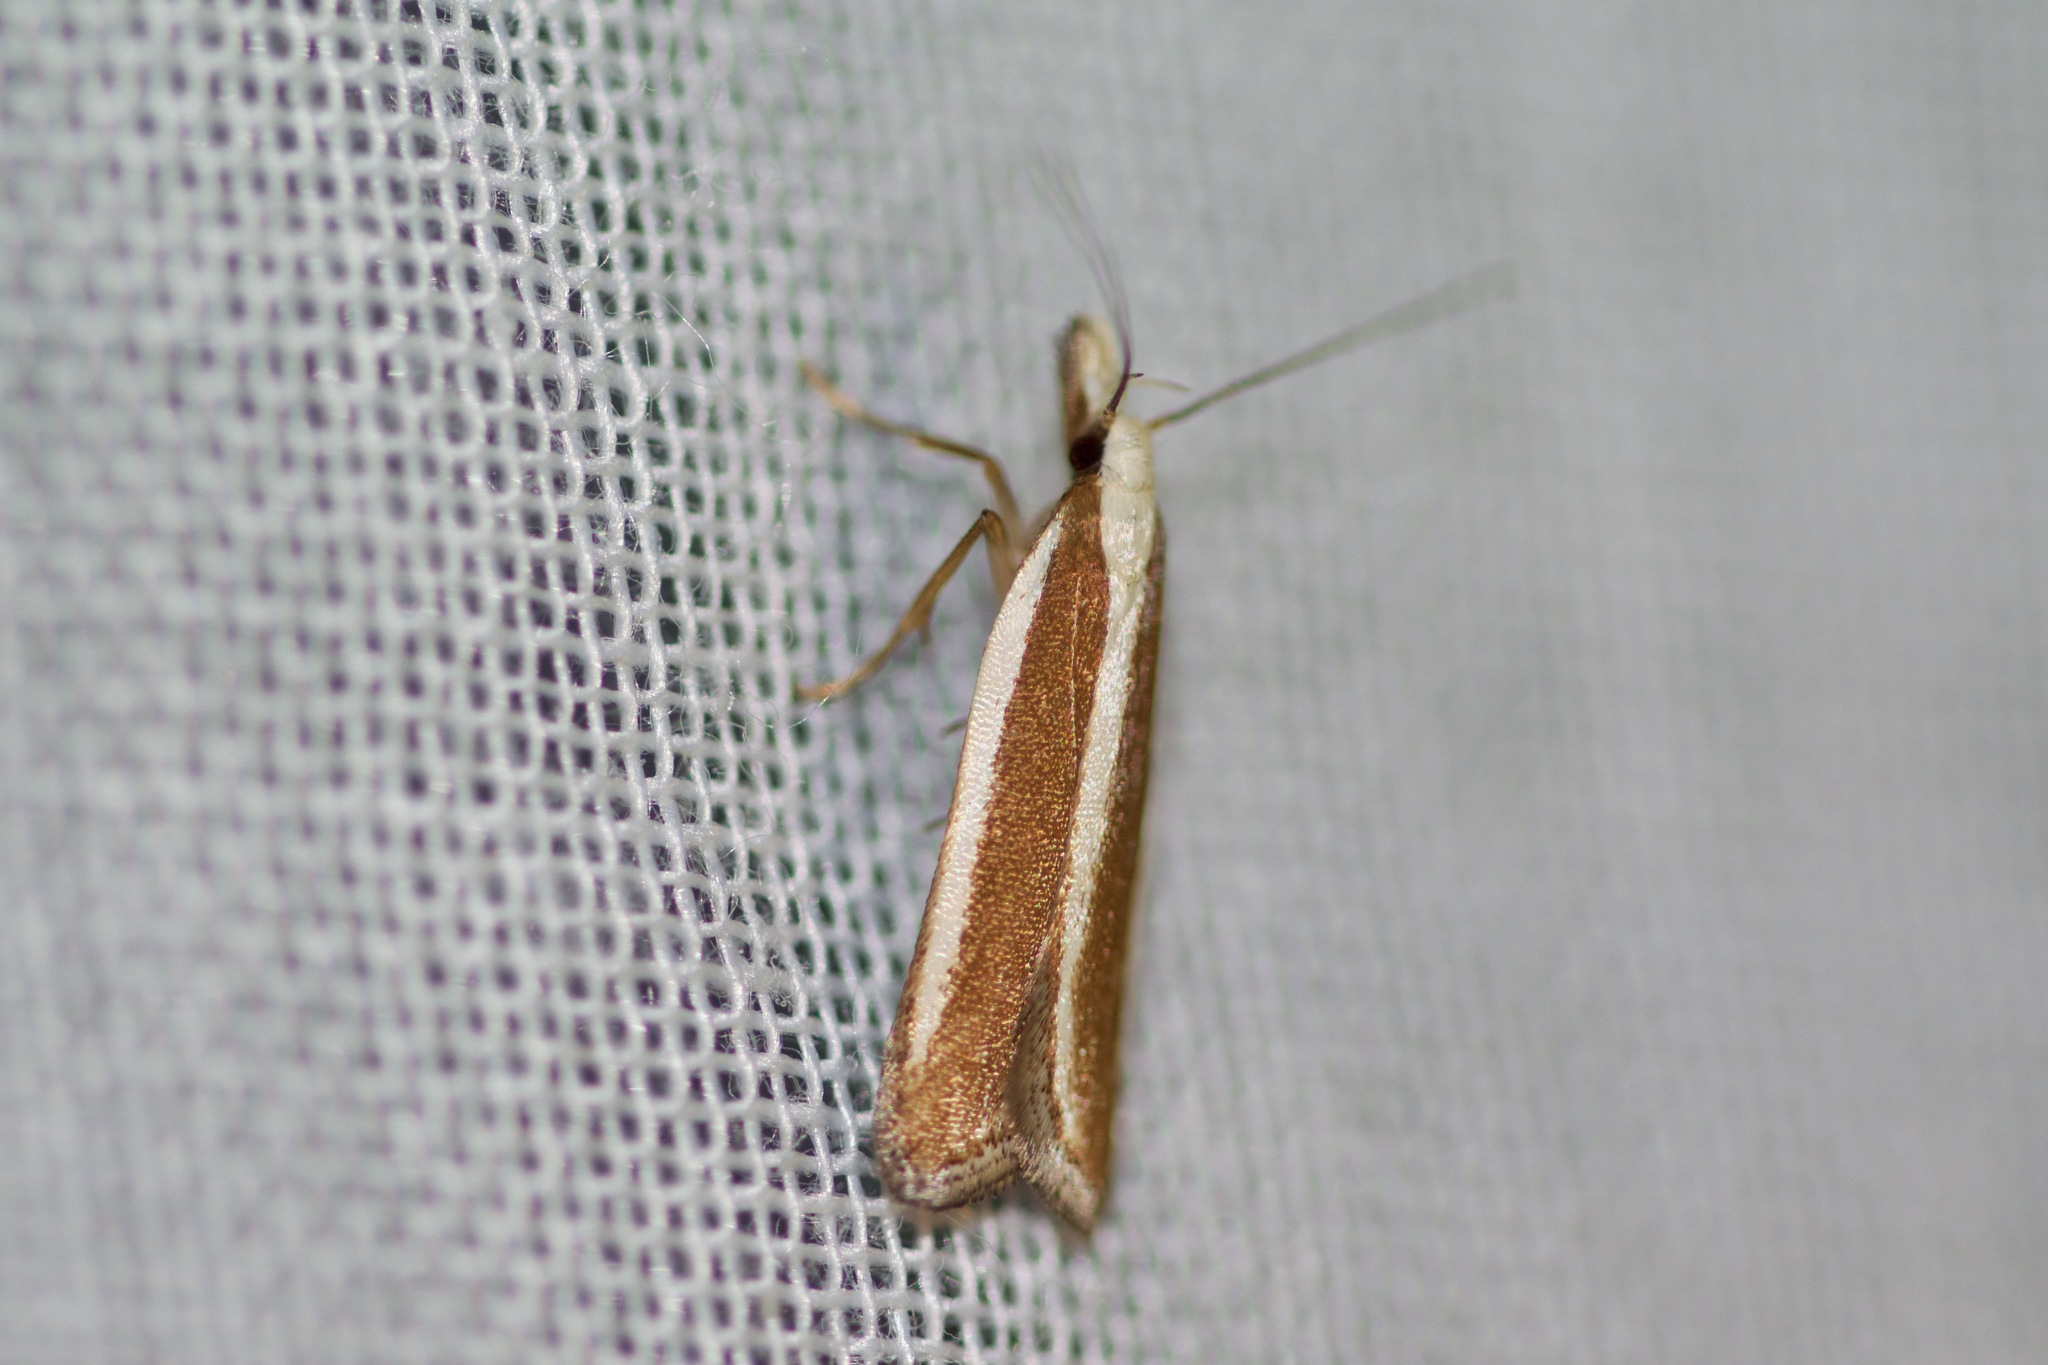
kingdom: Animalia
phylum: Arthropoda
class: Insecta
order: Lepidoptera
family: Gelechiidae
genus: Dichomeris
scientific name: Dichomeris marginella
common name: Juniper webworm
